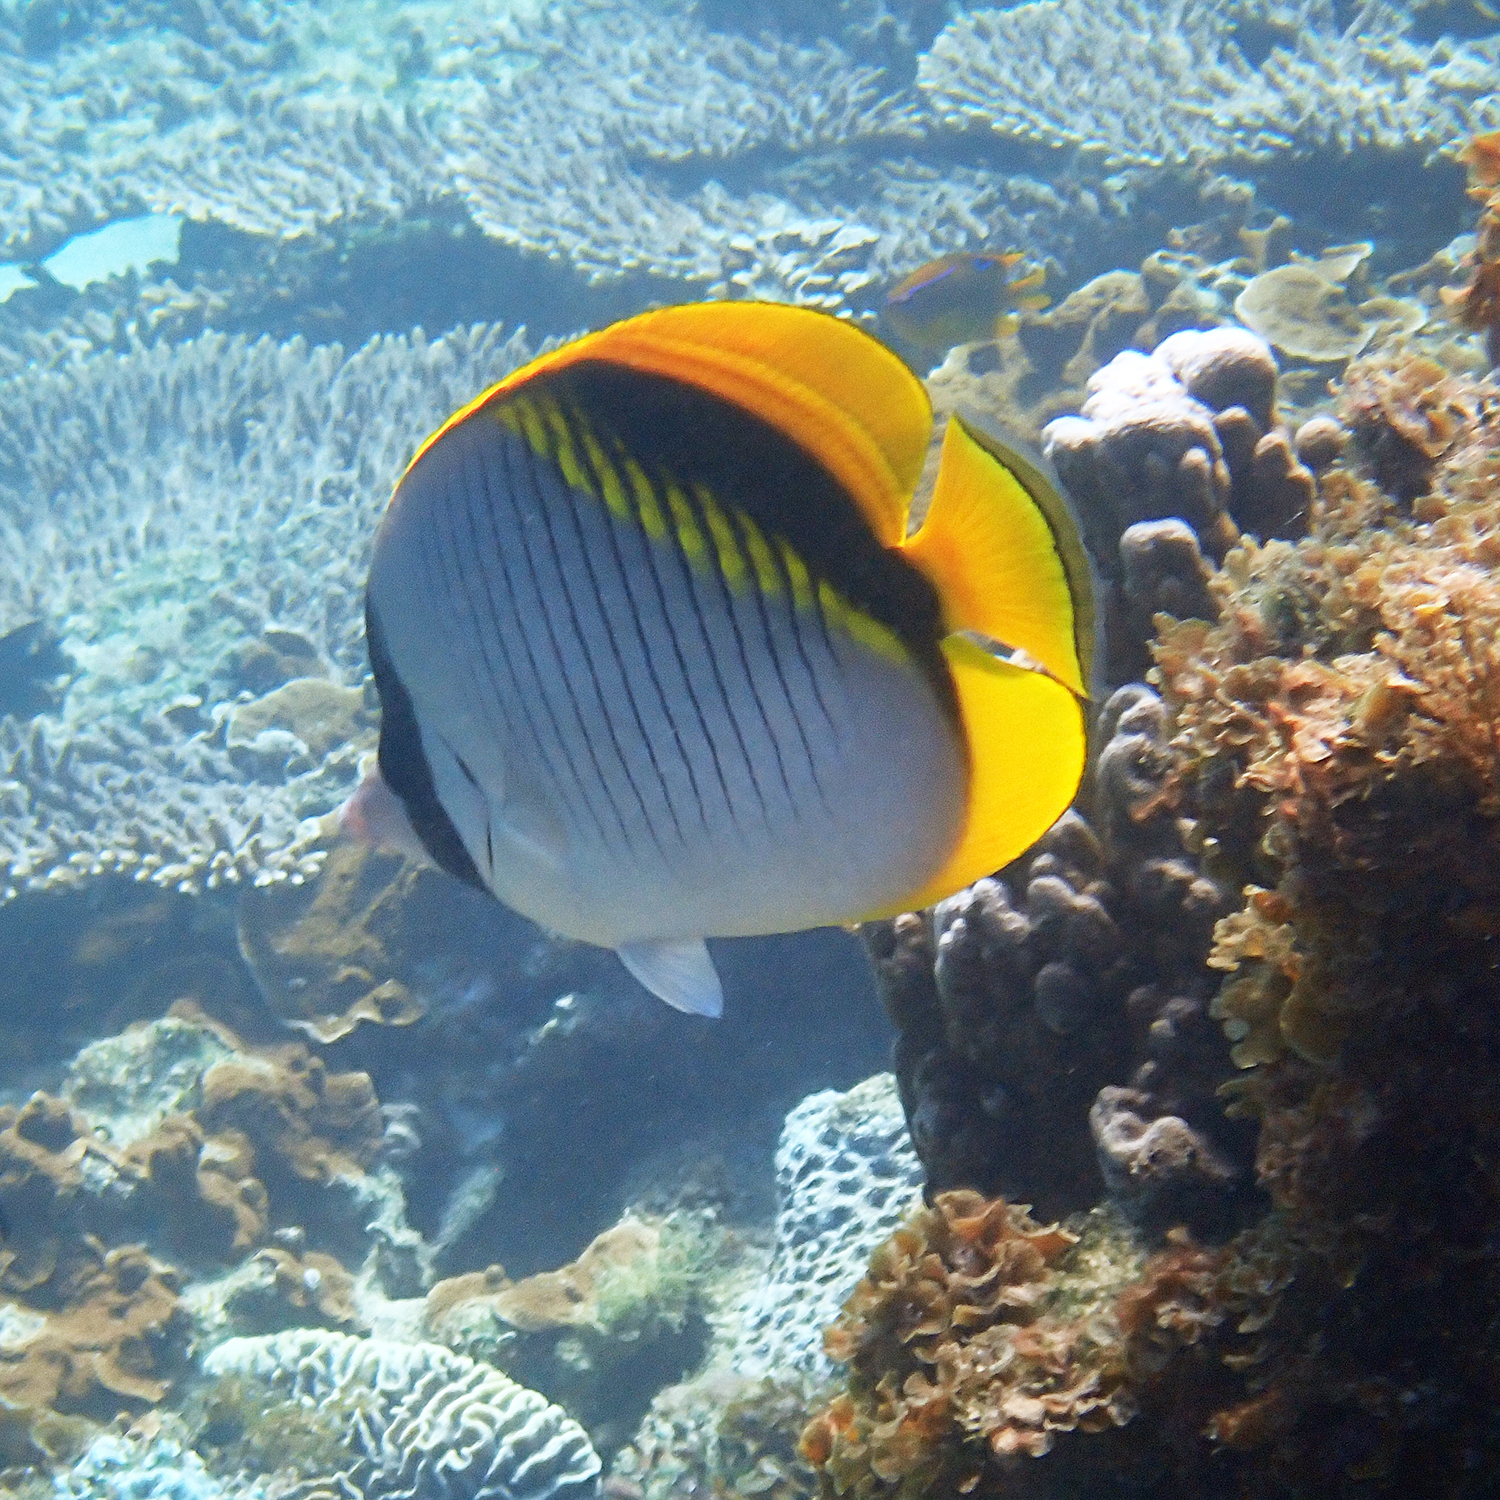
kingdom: Animalia
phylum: Chordata
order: Perciformes
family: Chaetodontidae
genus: Chaetodon
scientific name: Chaetodon lineolatus
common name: Lined butterflyfish
